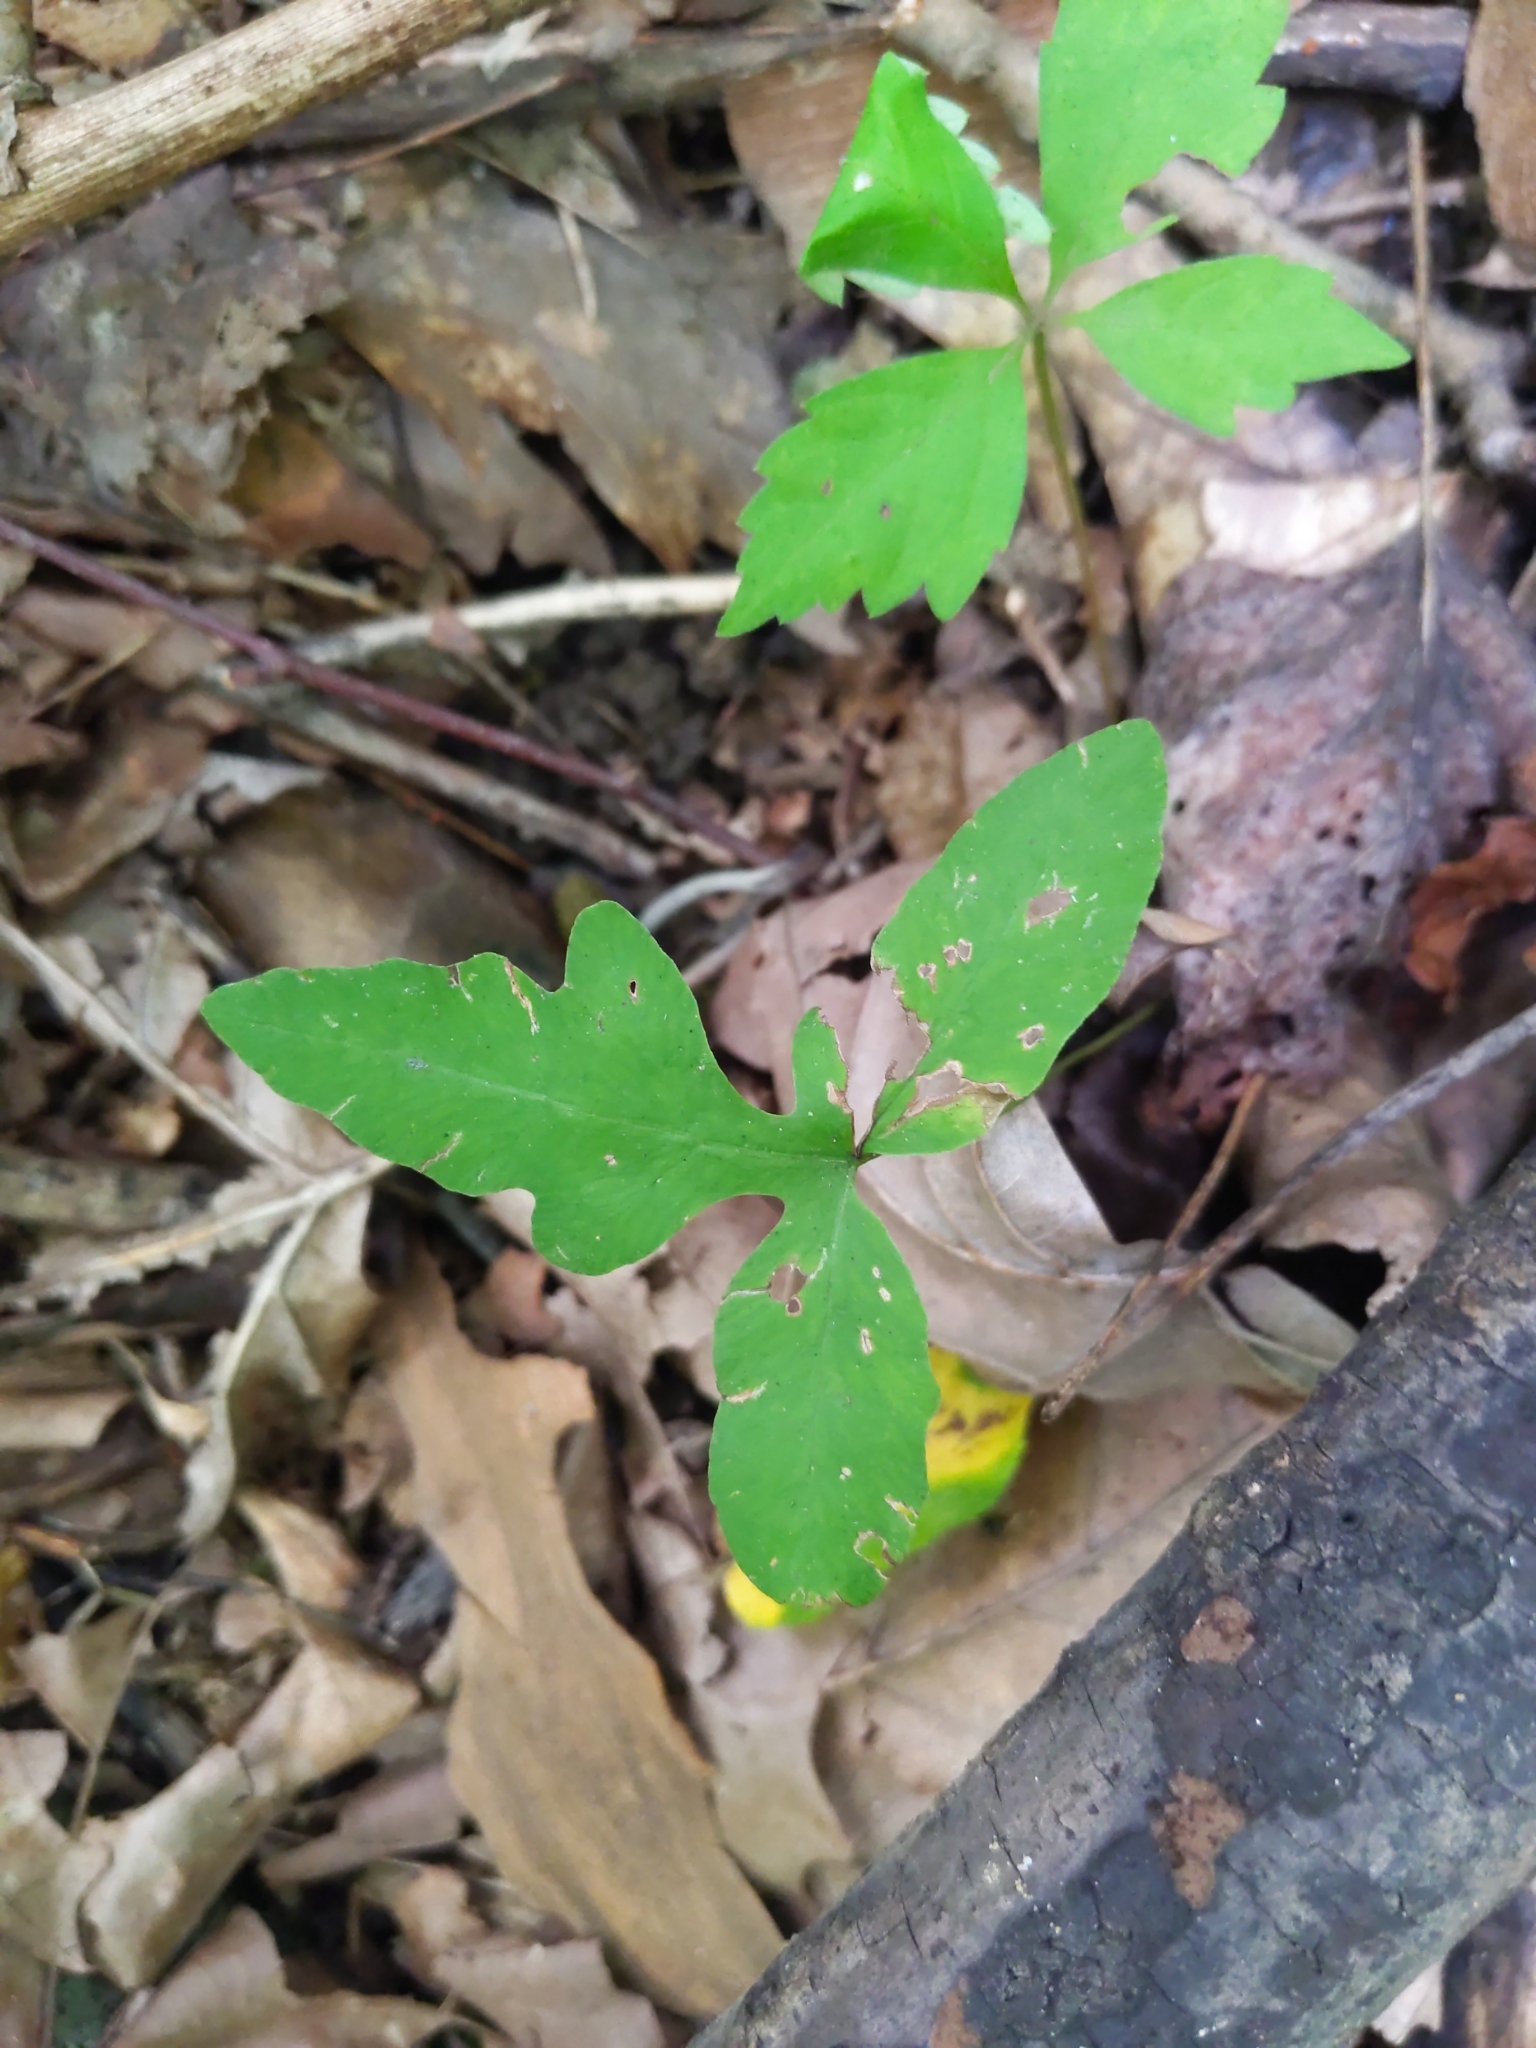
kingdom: Plantae
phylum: Tracheophyta
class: Polypodiopsida
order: Polypodiales
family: Onocleaceae
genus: Onoclea
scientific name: Onoclea sensibilis
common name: Sensitive fern
